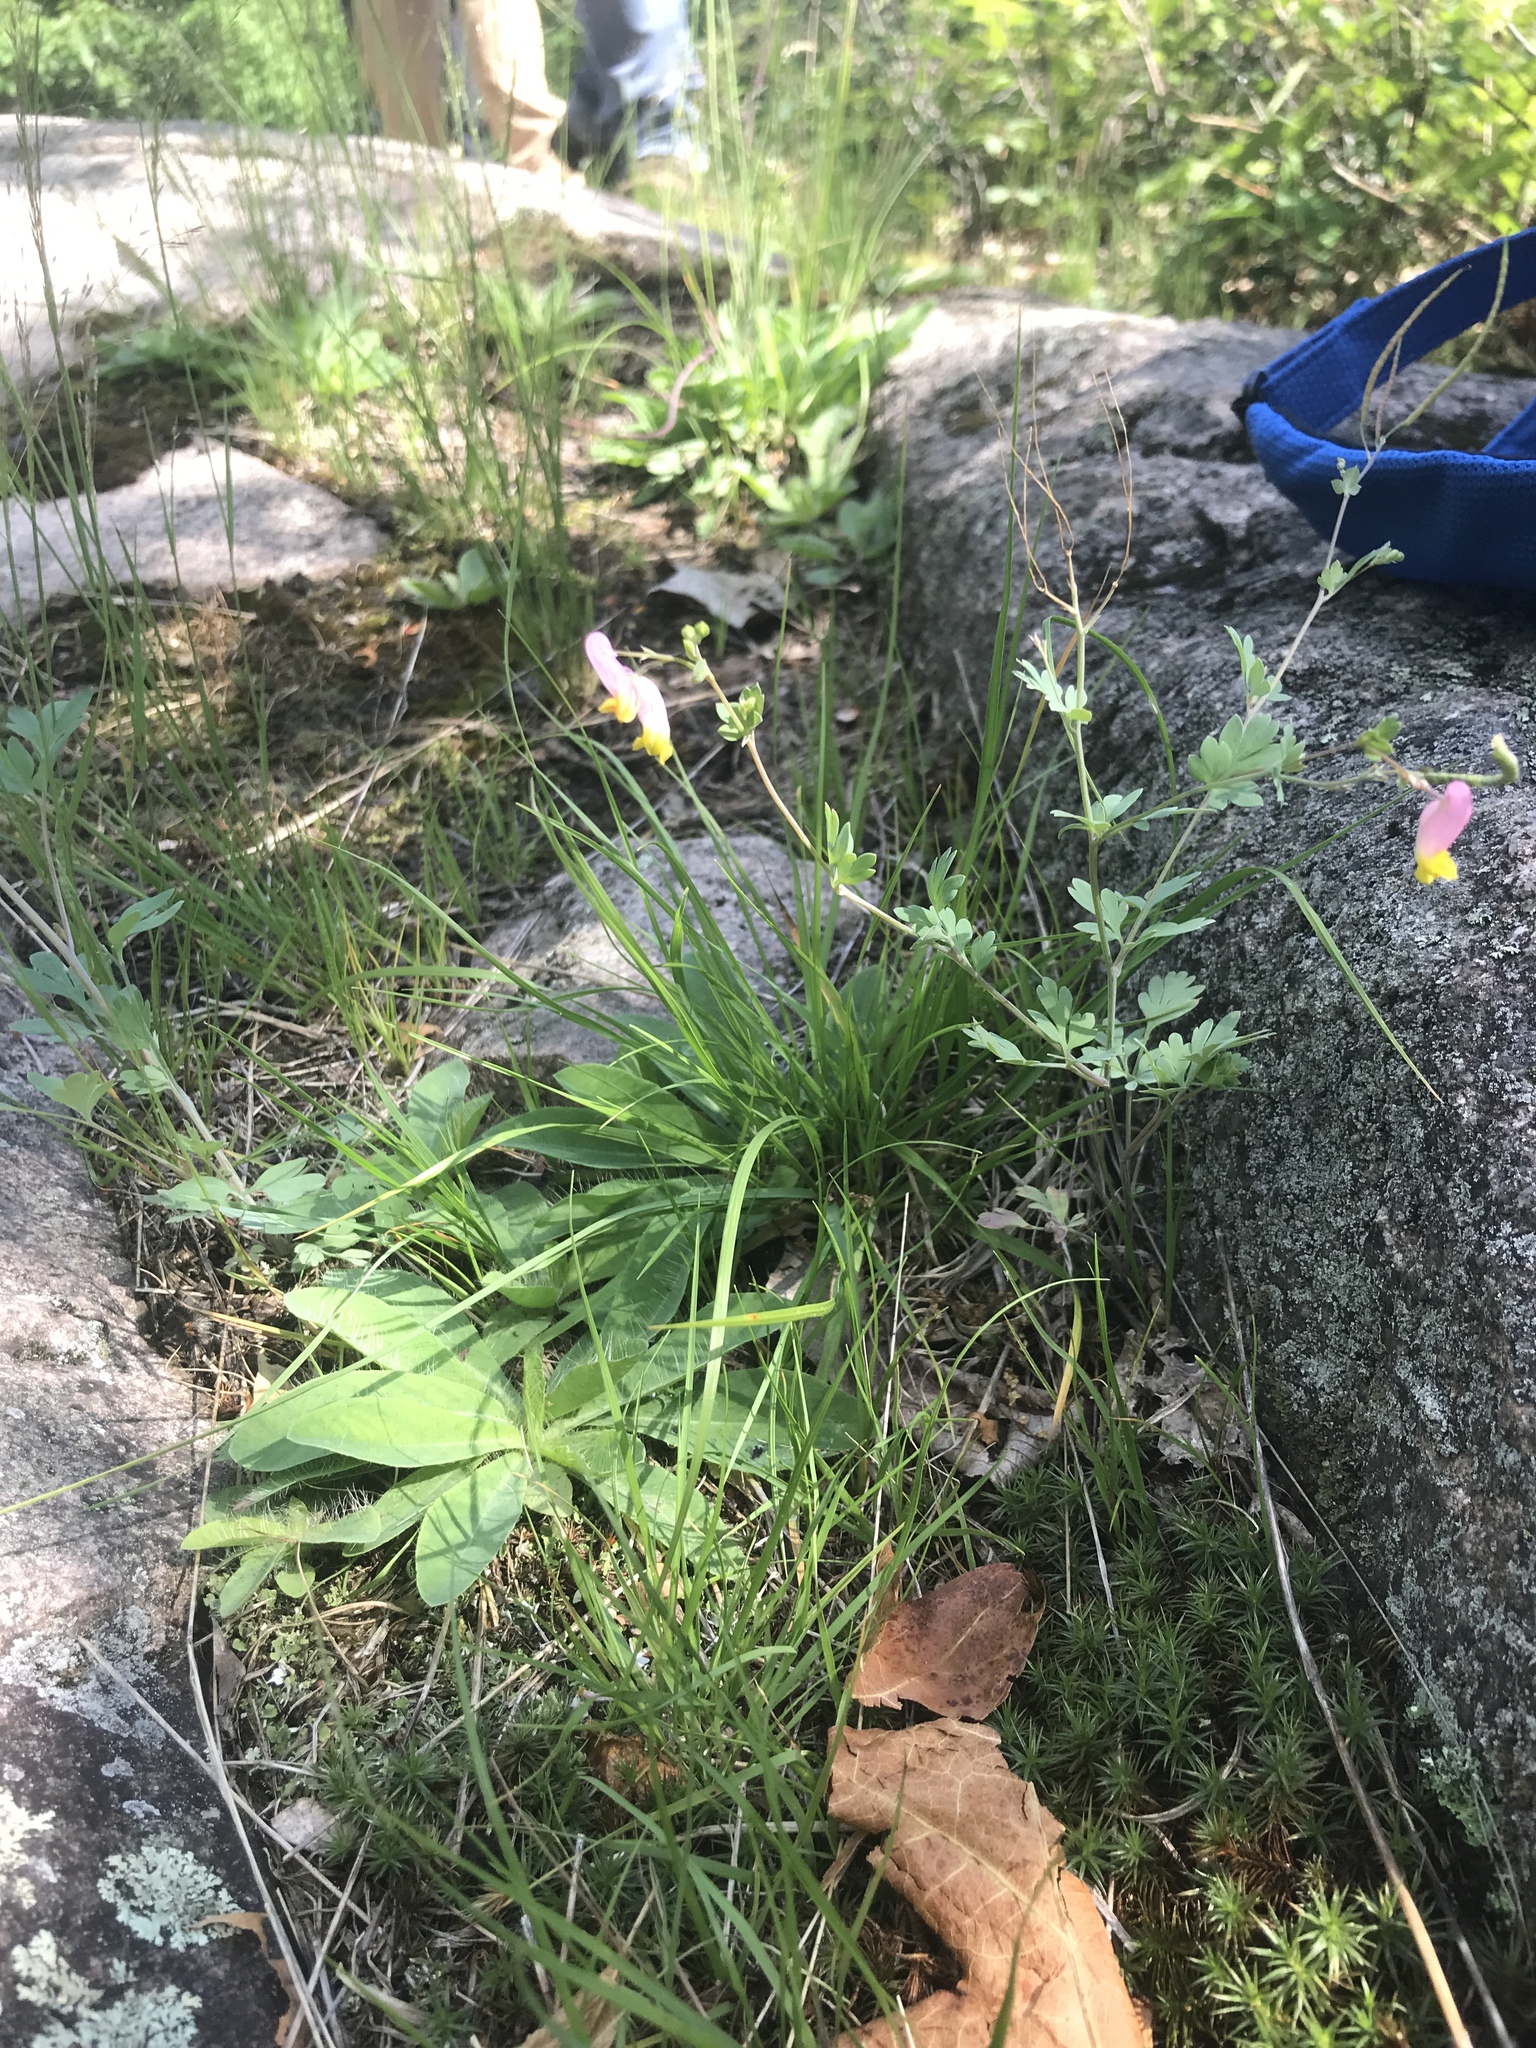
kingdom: Plantae
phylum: Tracheophyta
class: Magnoliopsida
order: Ranunculales
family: Papaveraceae
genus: Capnoides
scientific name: Capnoides sempervirens
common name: Rock harlequin
